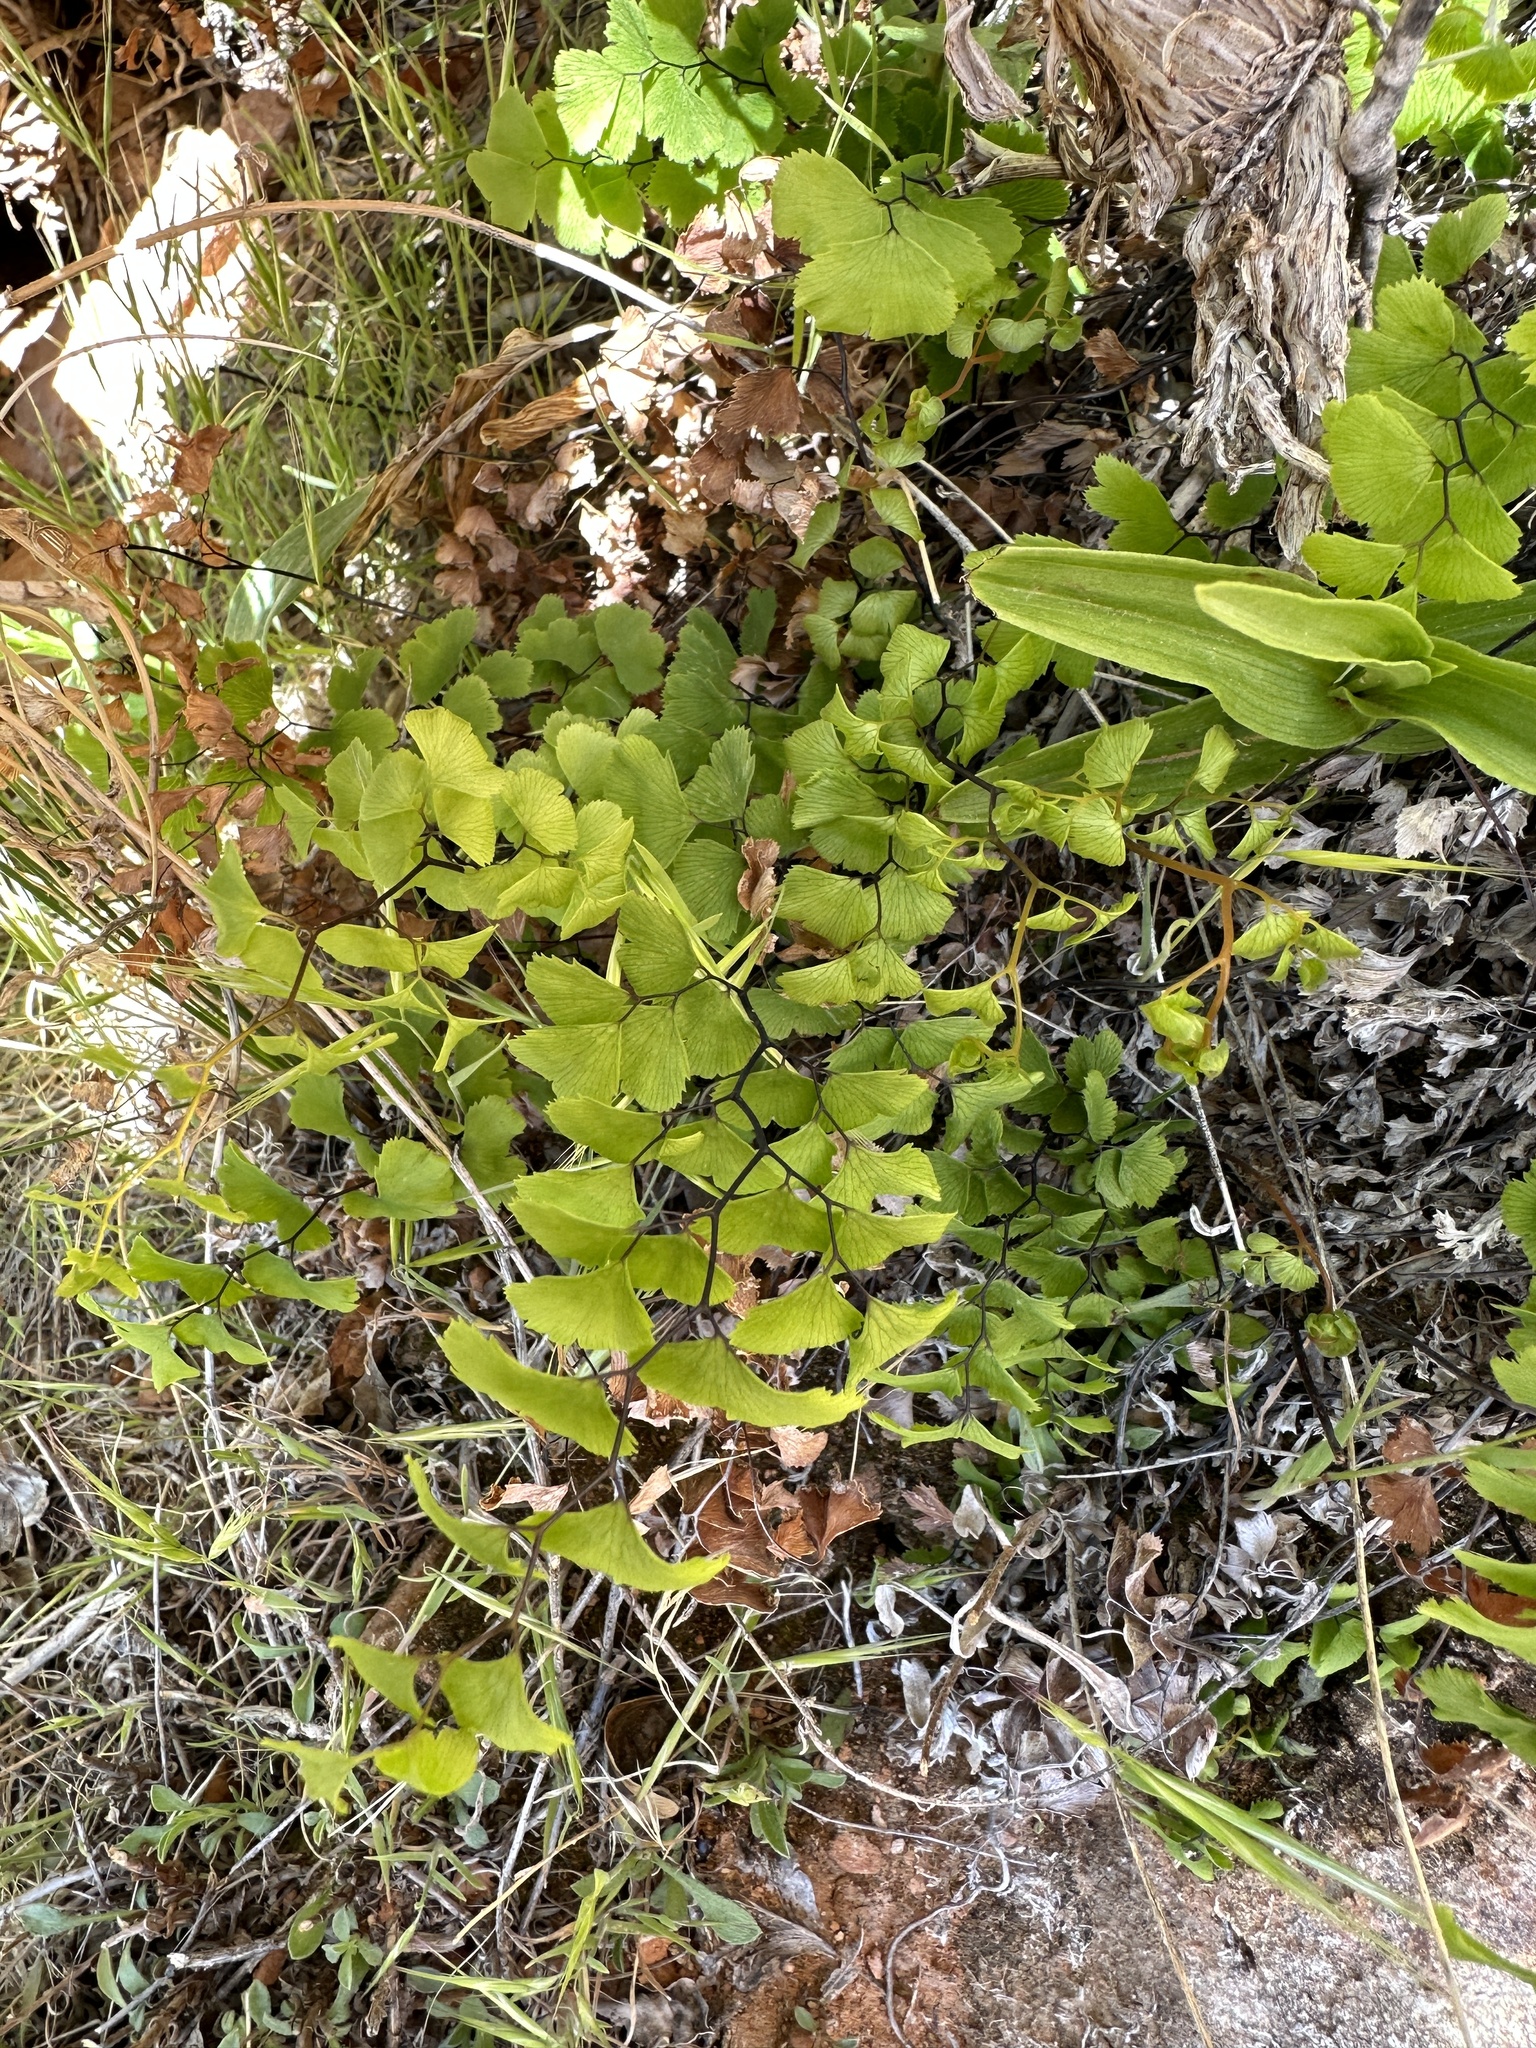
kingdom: Plantae
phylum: Tracheophyta
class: Polypodiopsida
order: Polypodiales
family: Pteridaceae
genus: Adiantum
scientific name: Adiantum capillus-veneris
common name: Maidenhair fern
